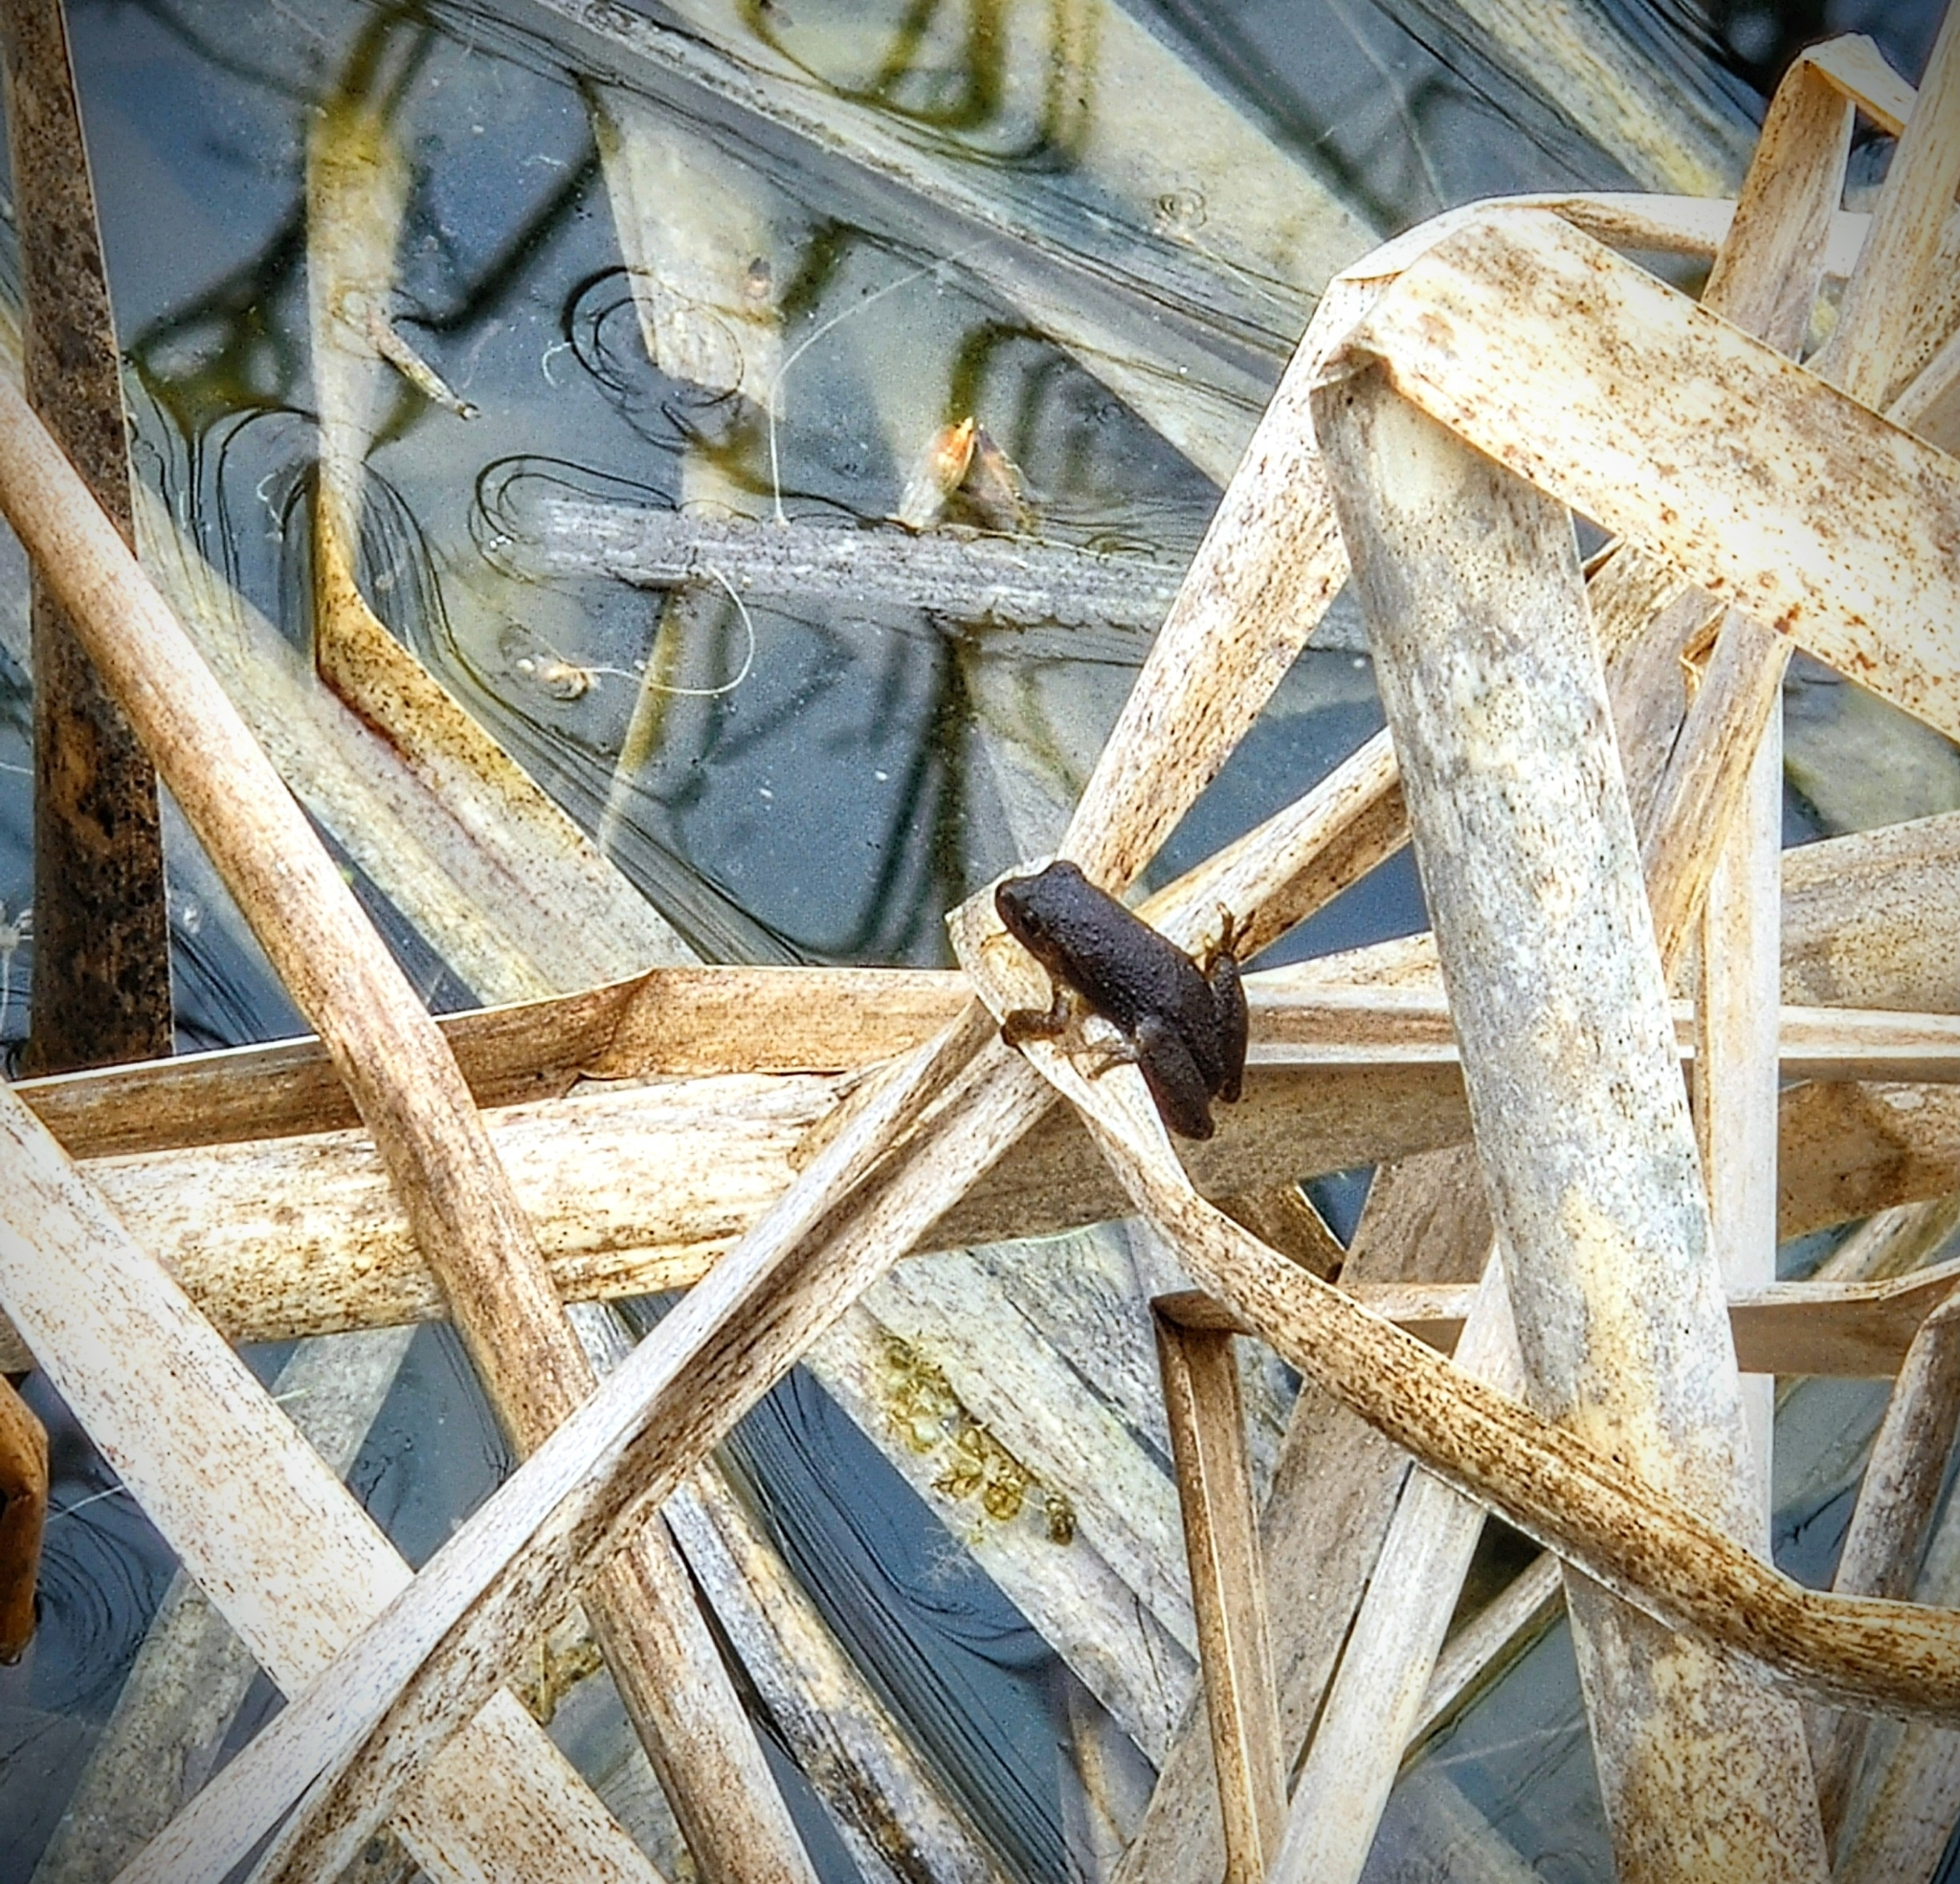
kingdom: Animalia
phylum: Chordata
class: Amphibia
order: Anura
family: Hylidae
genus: Pseudacris
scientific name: Pseudacris crucifer
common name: Spring peeper
